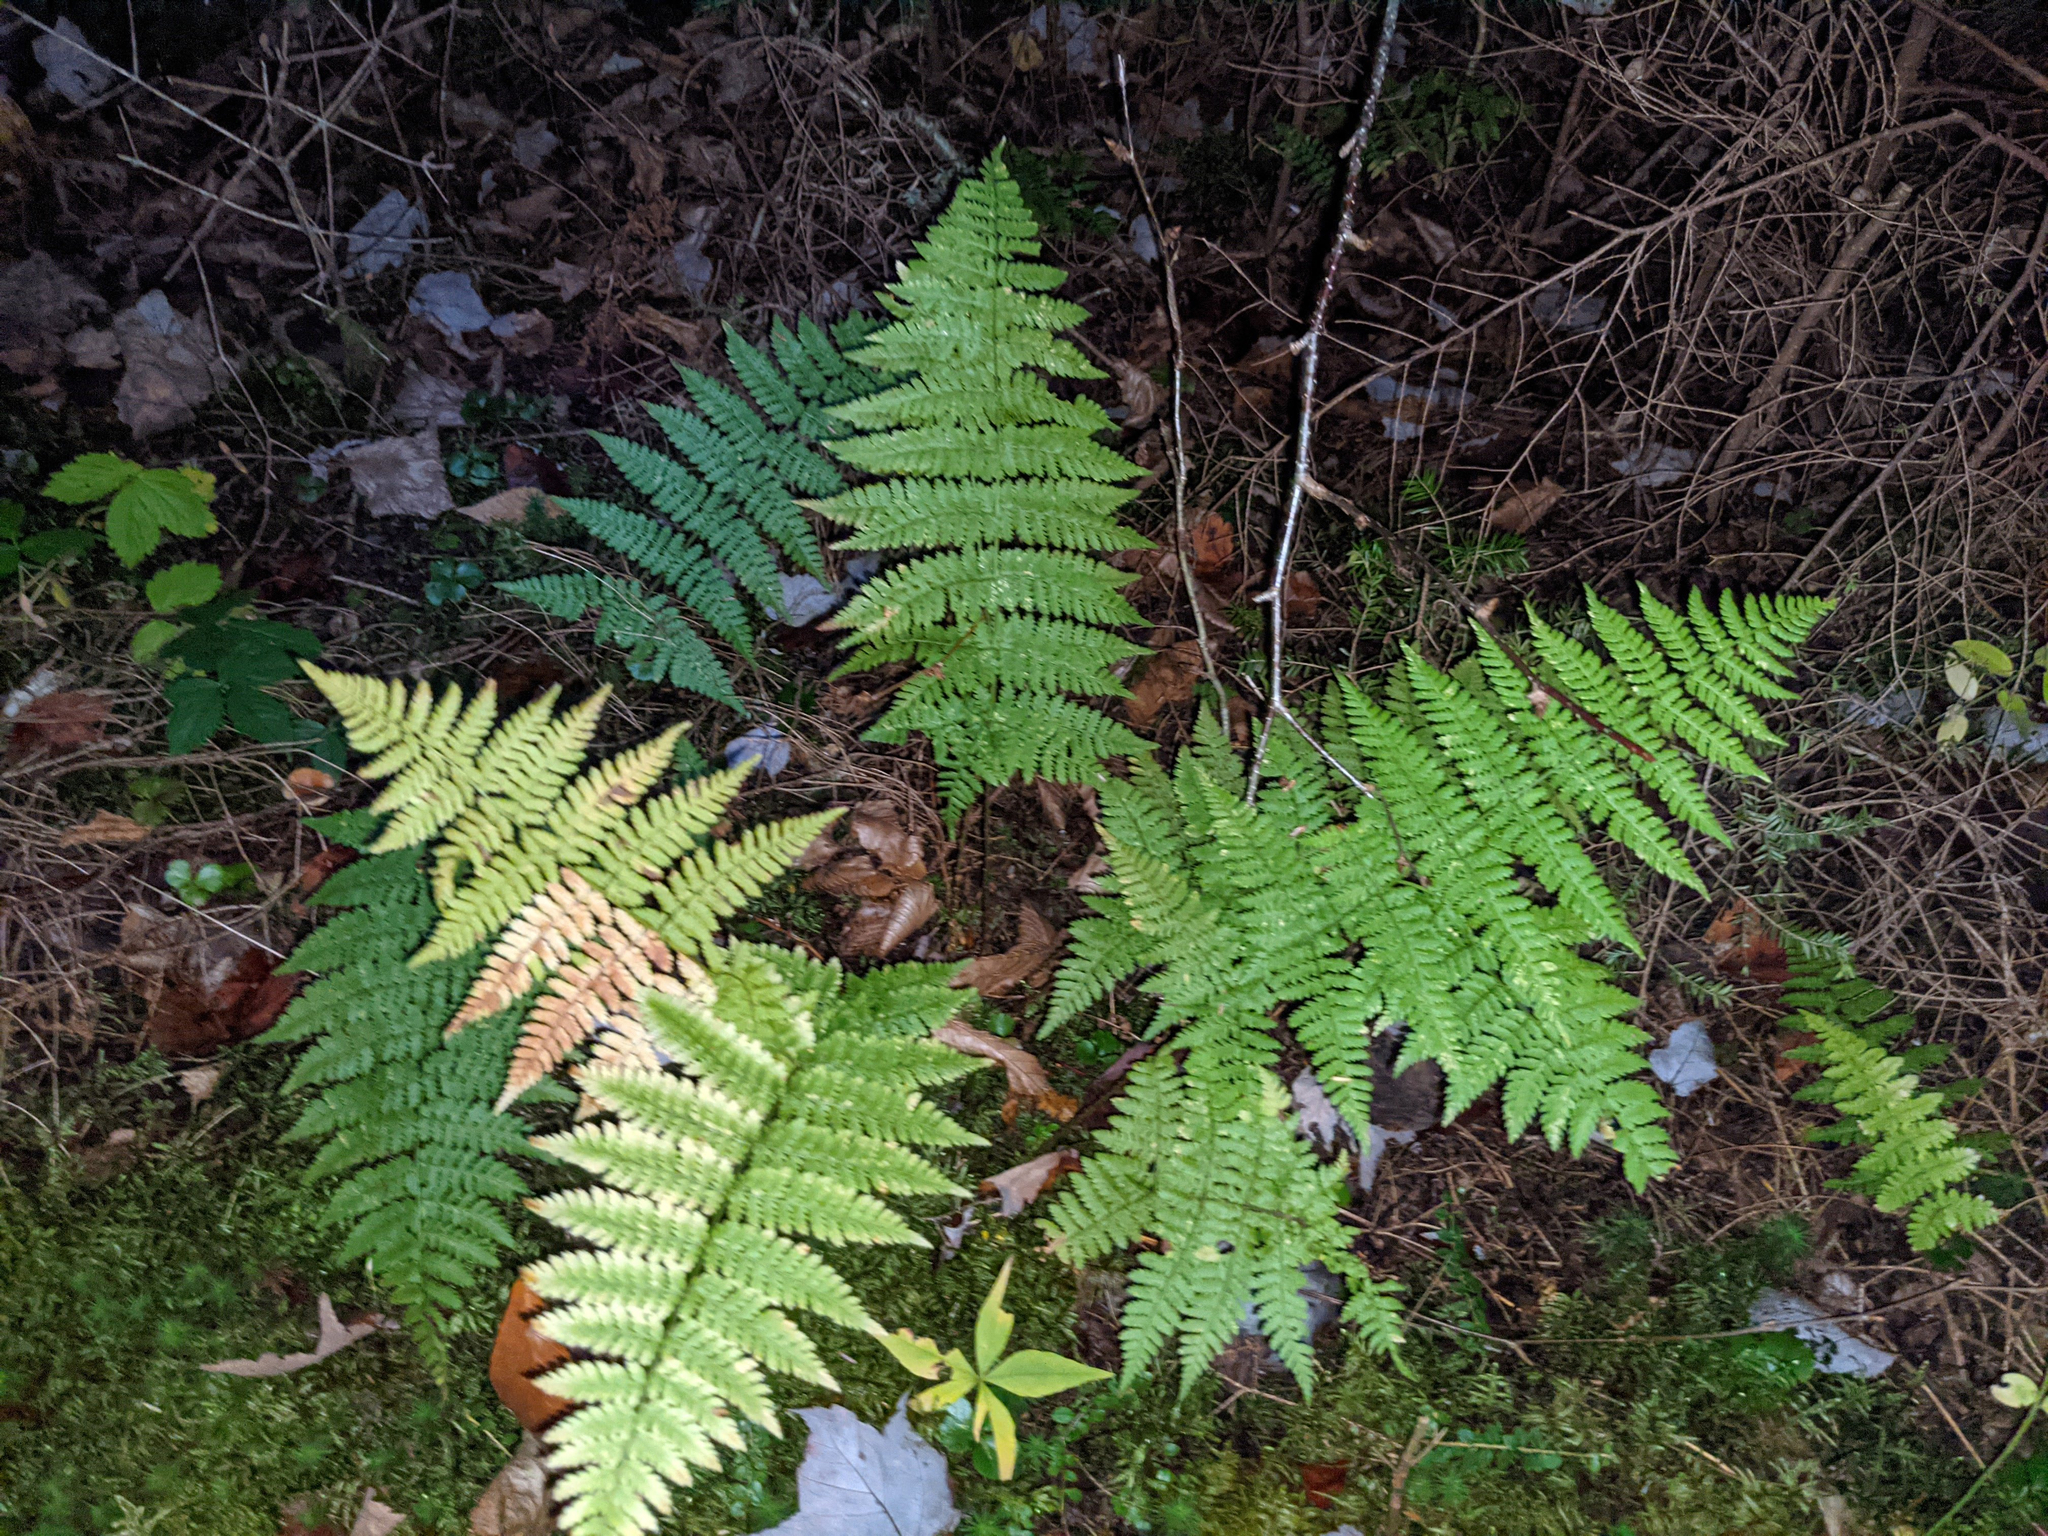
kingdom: Plantae
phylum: Tracheophyta
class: Polypodiopsida
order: Polypodiales
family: Dryopteridaceae
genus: Dryopteris
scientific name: Dryopteris intermedia
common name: Evergreen wood fern
